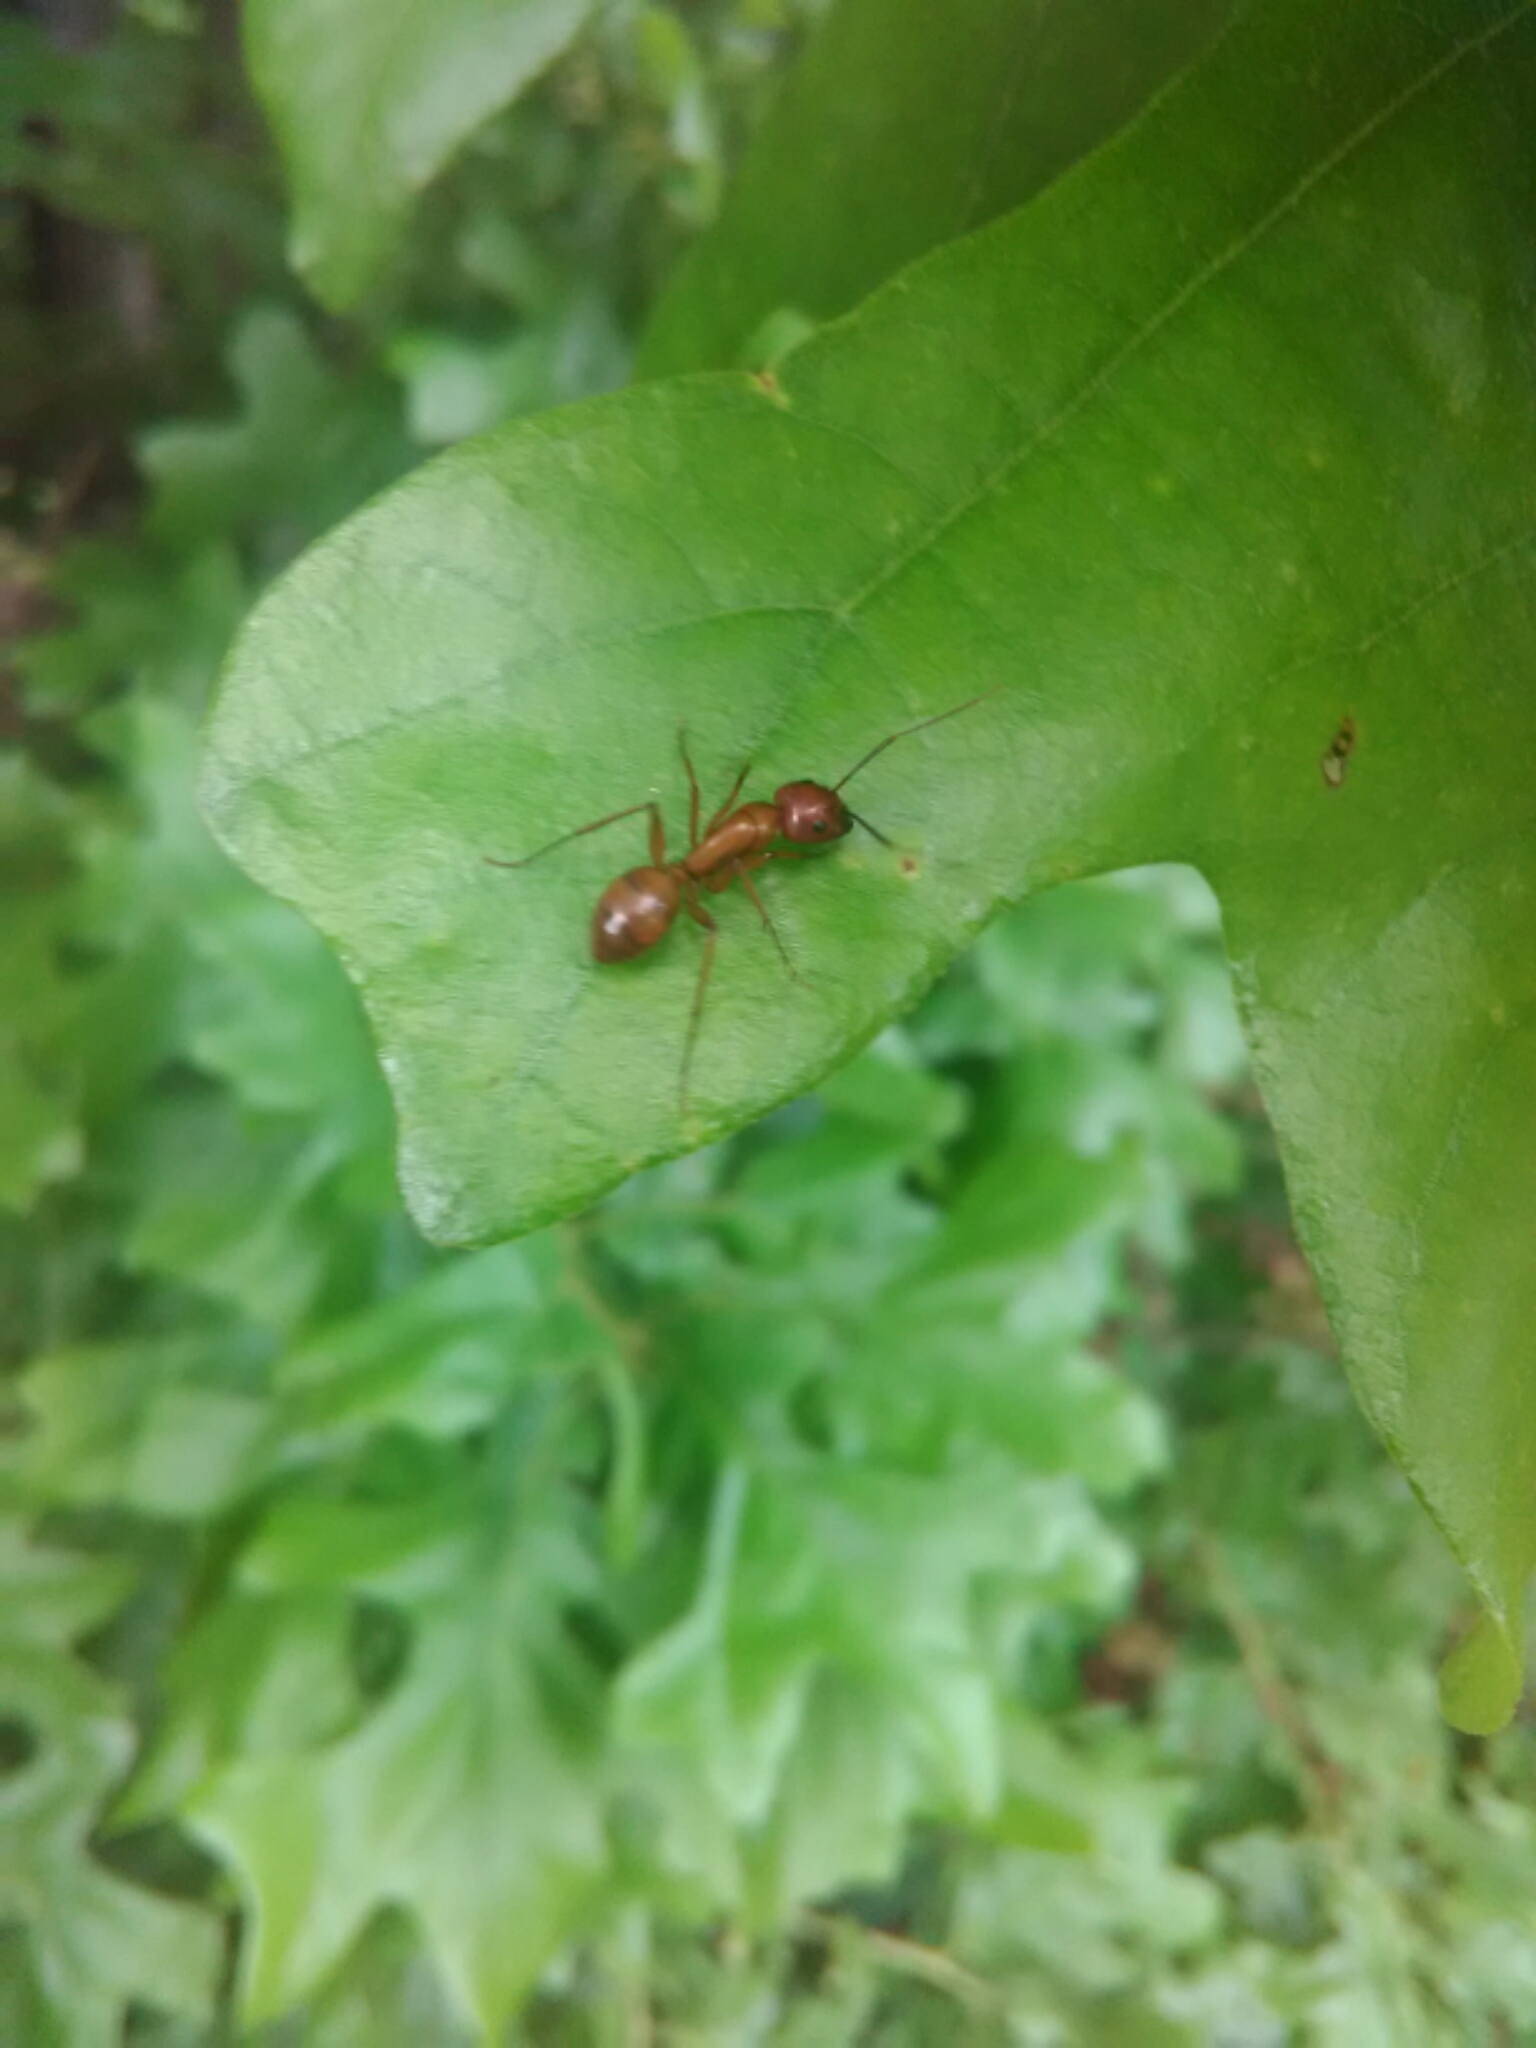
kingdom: Animalia
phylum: Arthropoda
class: Insecta
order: Hymenoptera
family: Formicidae
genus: Camponotus
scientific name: Camponotus castaneus
